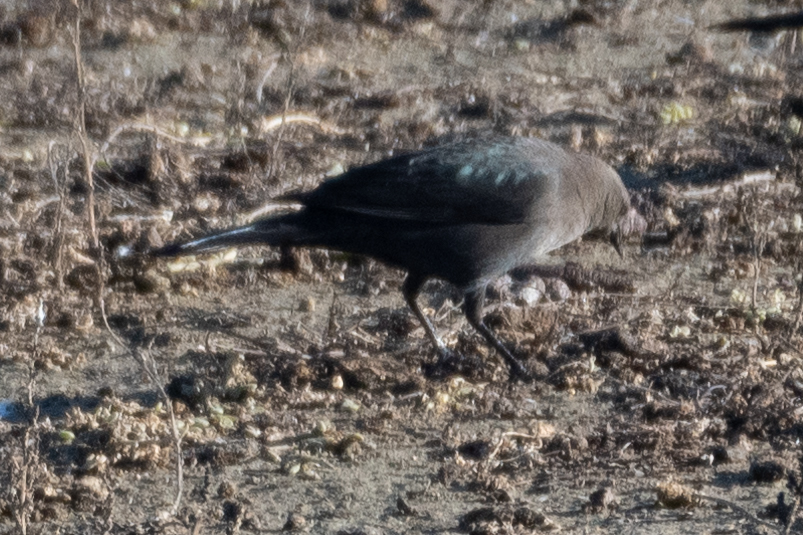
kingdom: Animalia
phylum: Chordata
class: Aves
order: Passeriformes
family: Icteridae
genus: Euphagus
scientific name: Euphagus cyanocephalus
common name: Brewer's blackbird
